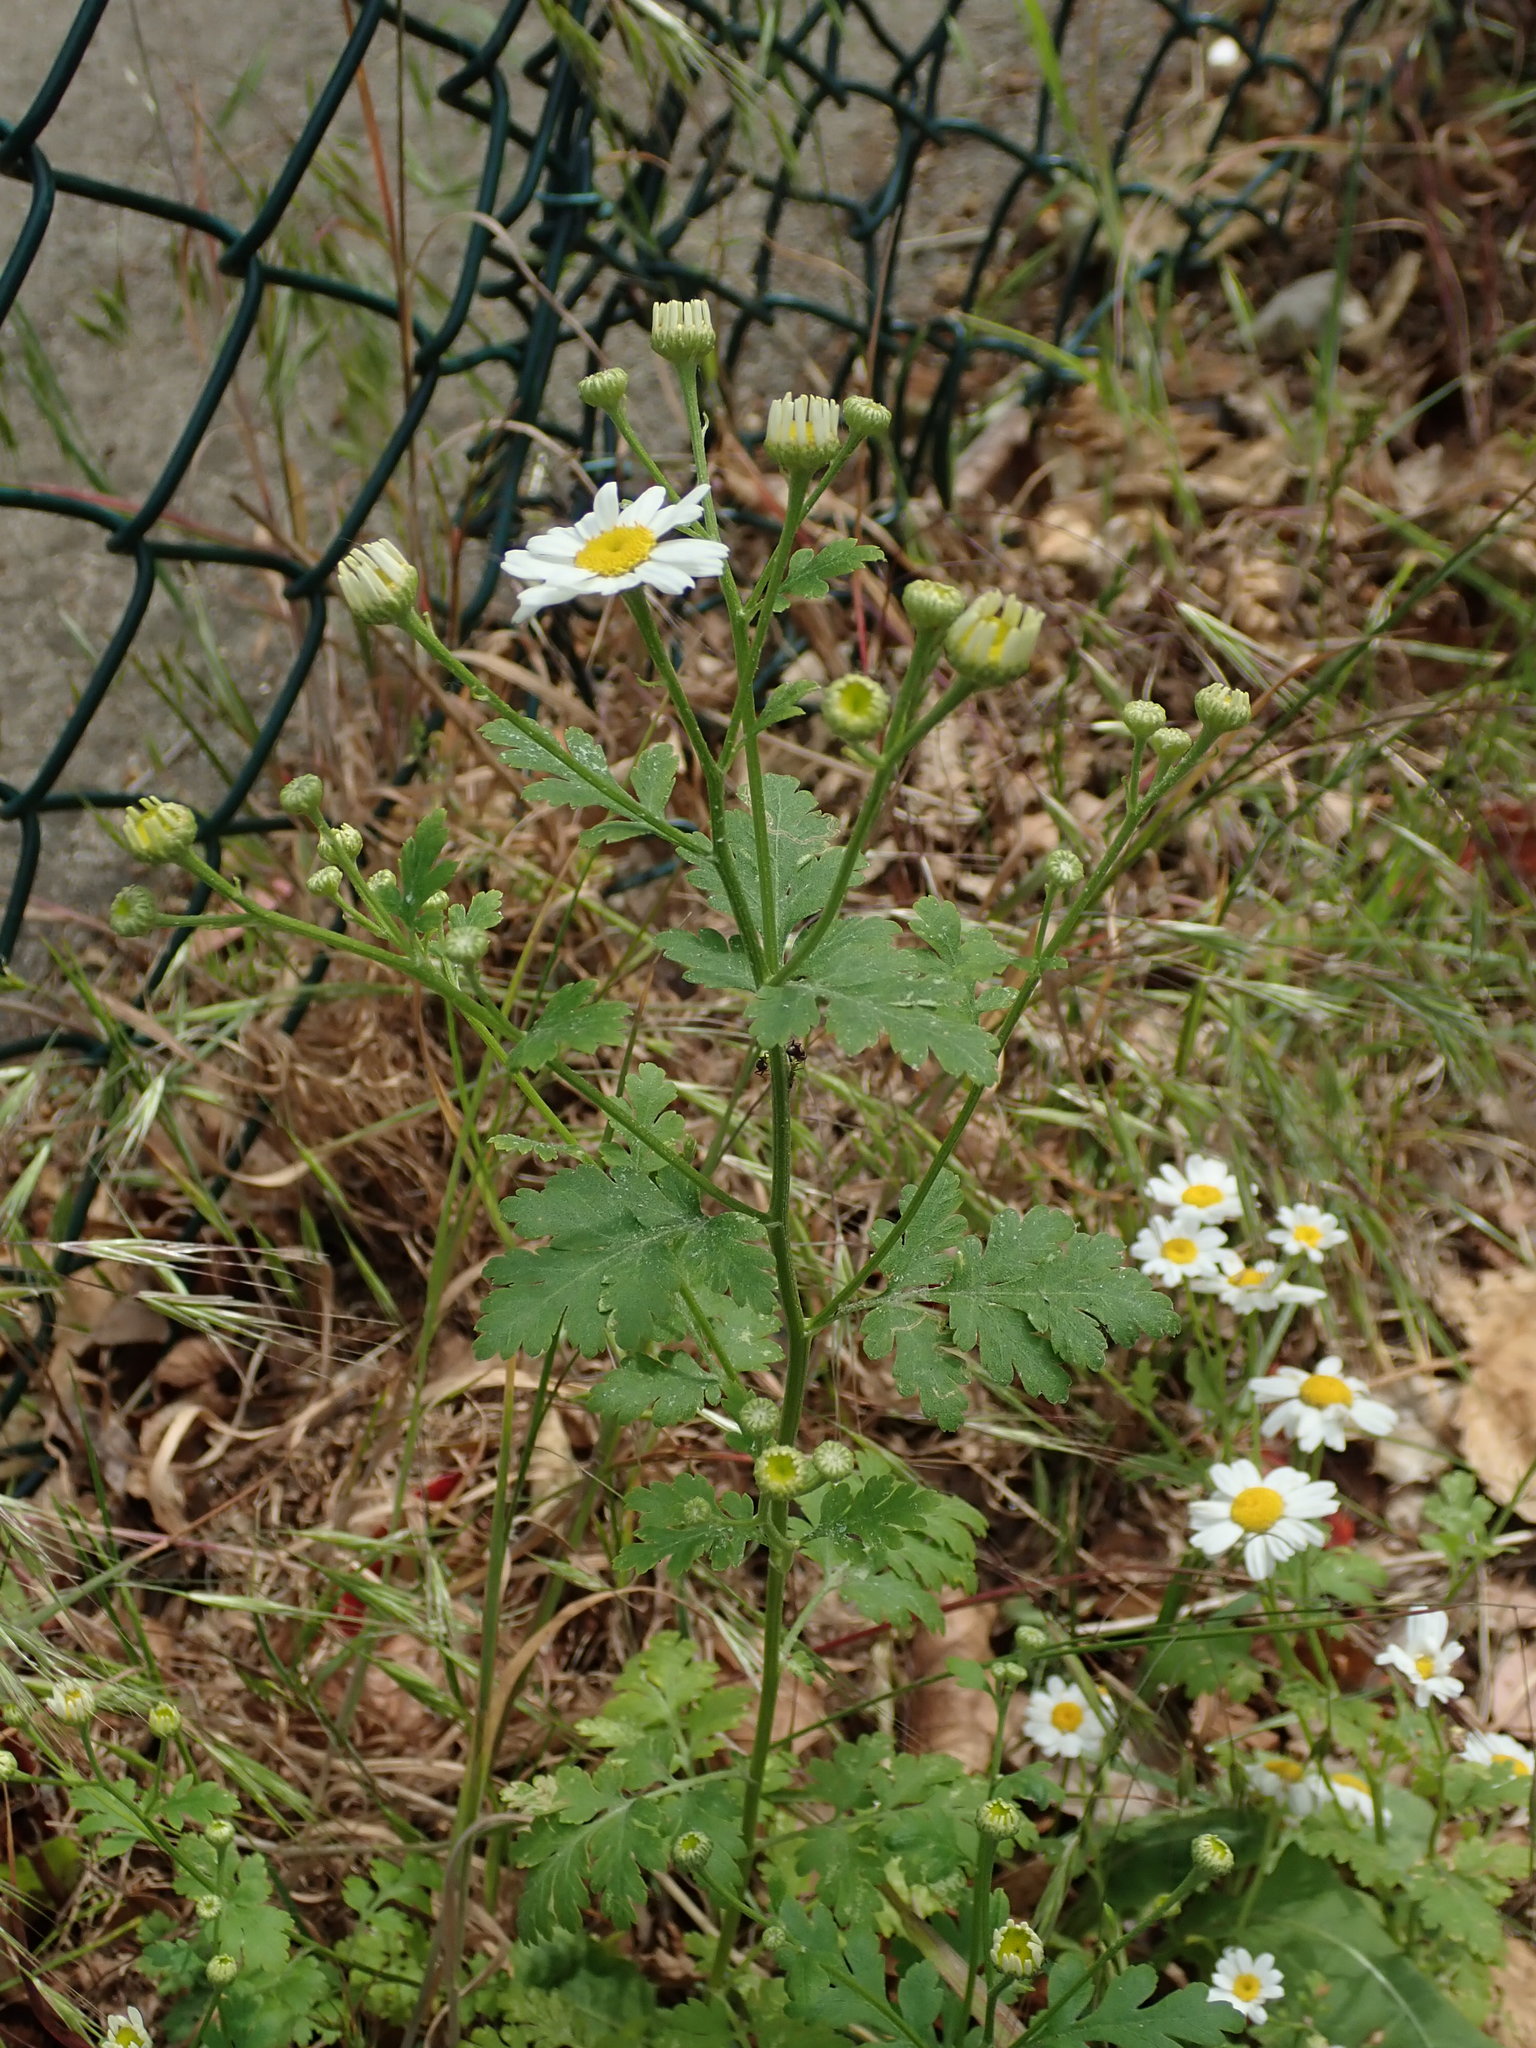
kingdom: Plantae
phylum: Tracheophyta
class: Magnoliopsida
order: Asterales
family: Asteraceae
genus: Tanacetum
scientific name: Tanacetum parthenium
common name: Feverfew
